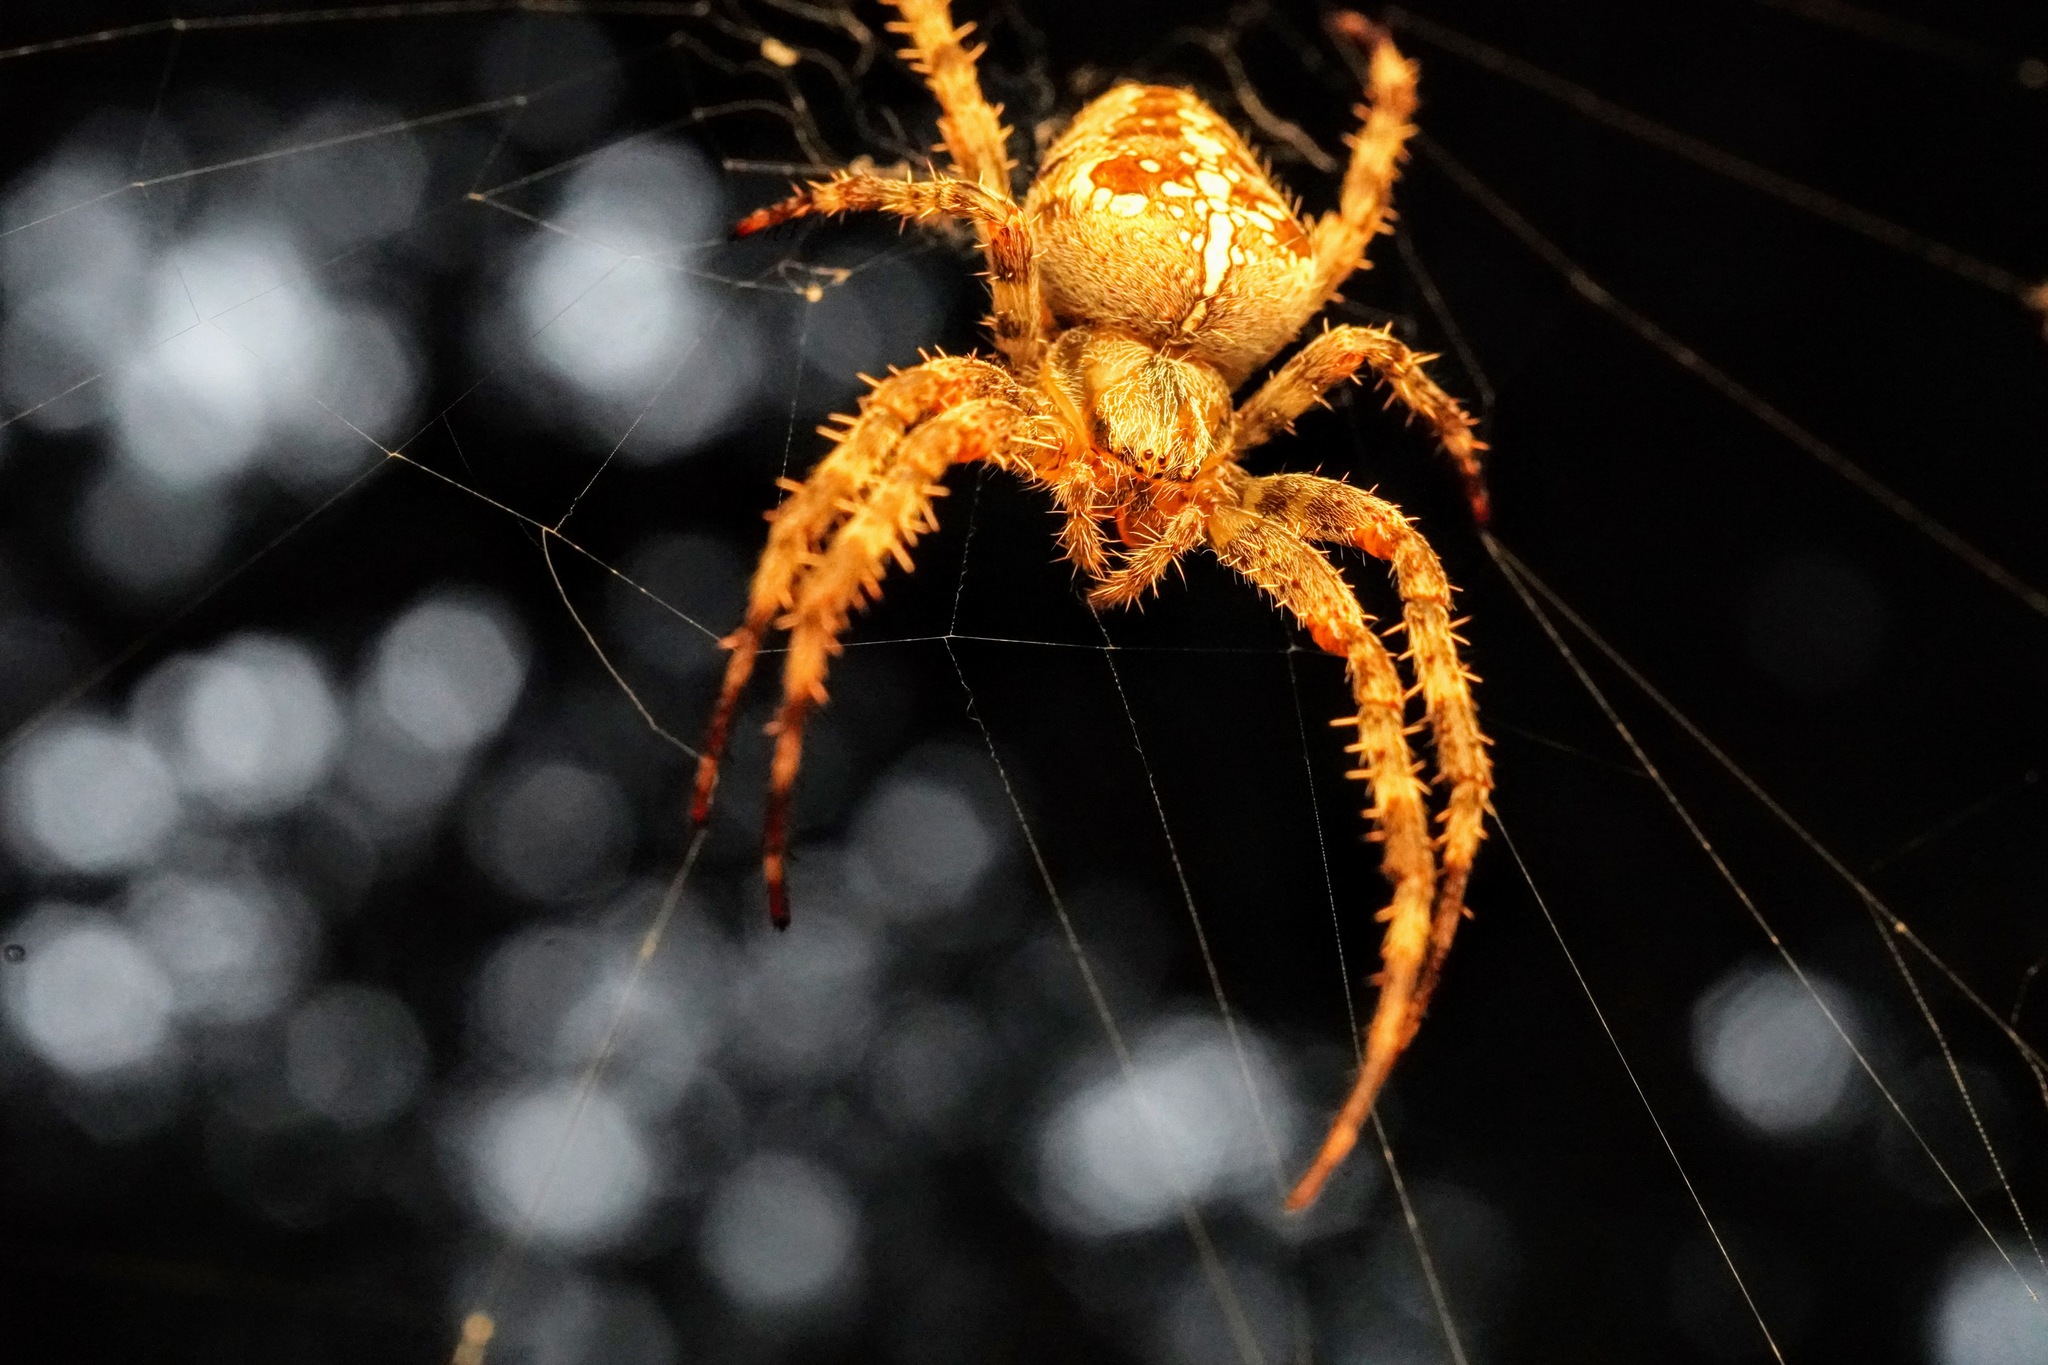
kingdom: Animalia
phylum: Arthropoda
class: Arachnida
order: Araneae
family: Araneidae
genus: Araneus
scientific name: Araneus diadematus
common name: Cross orbweaver
